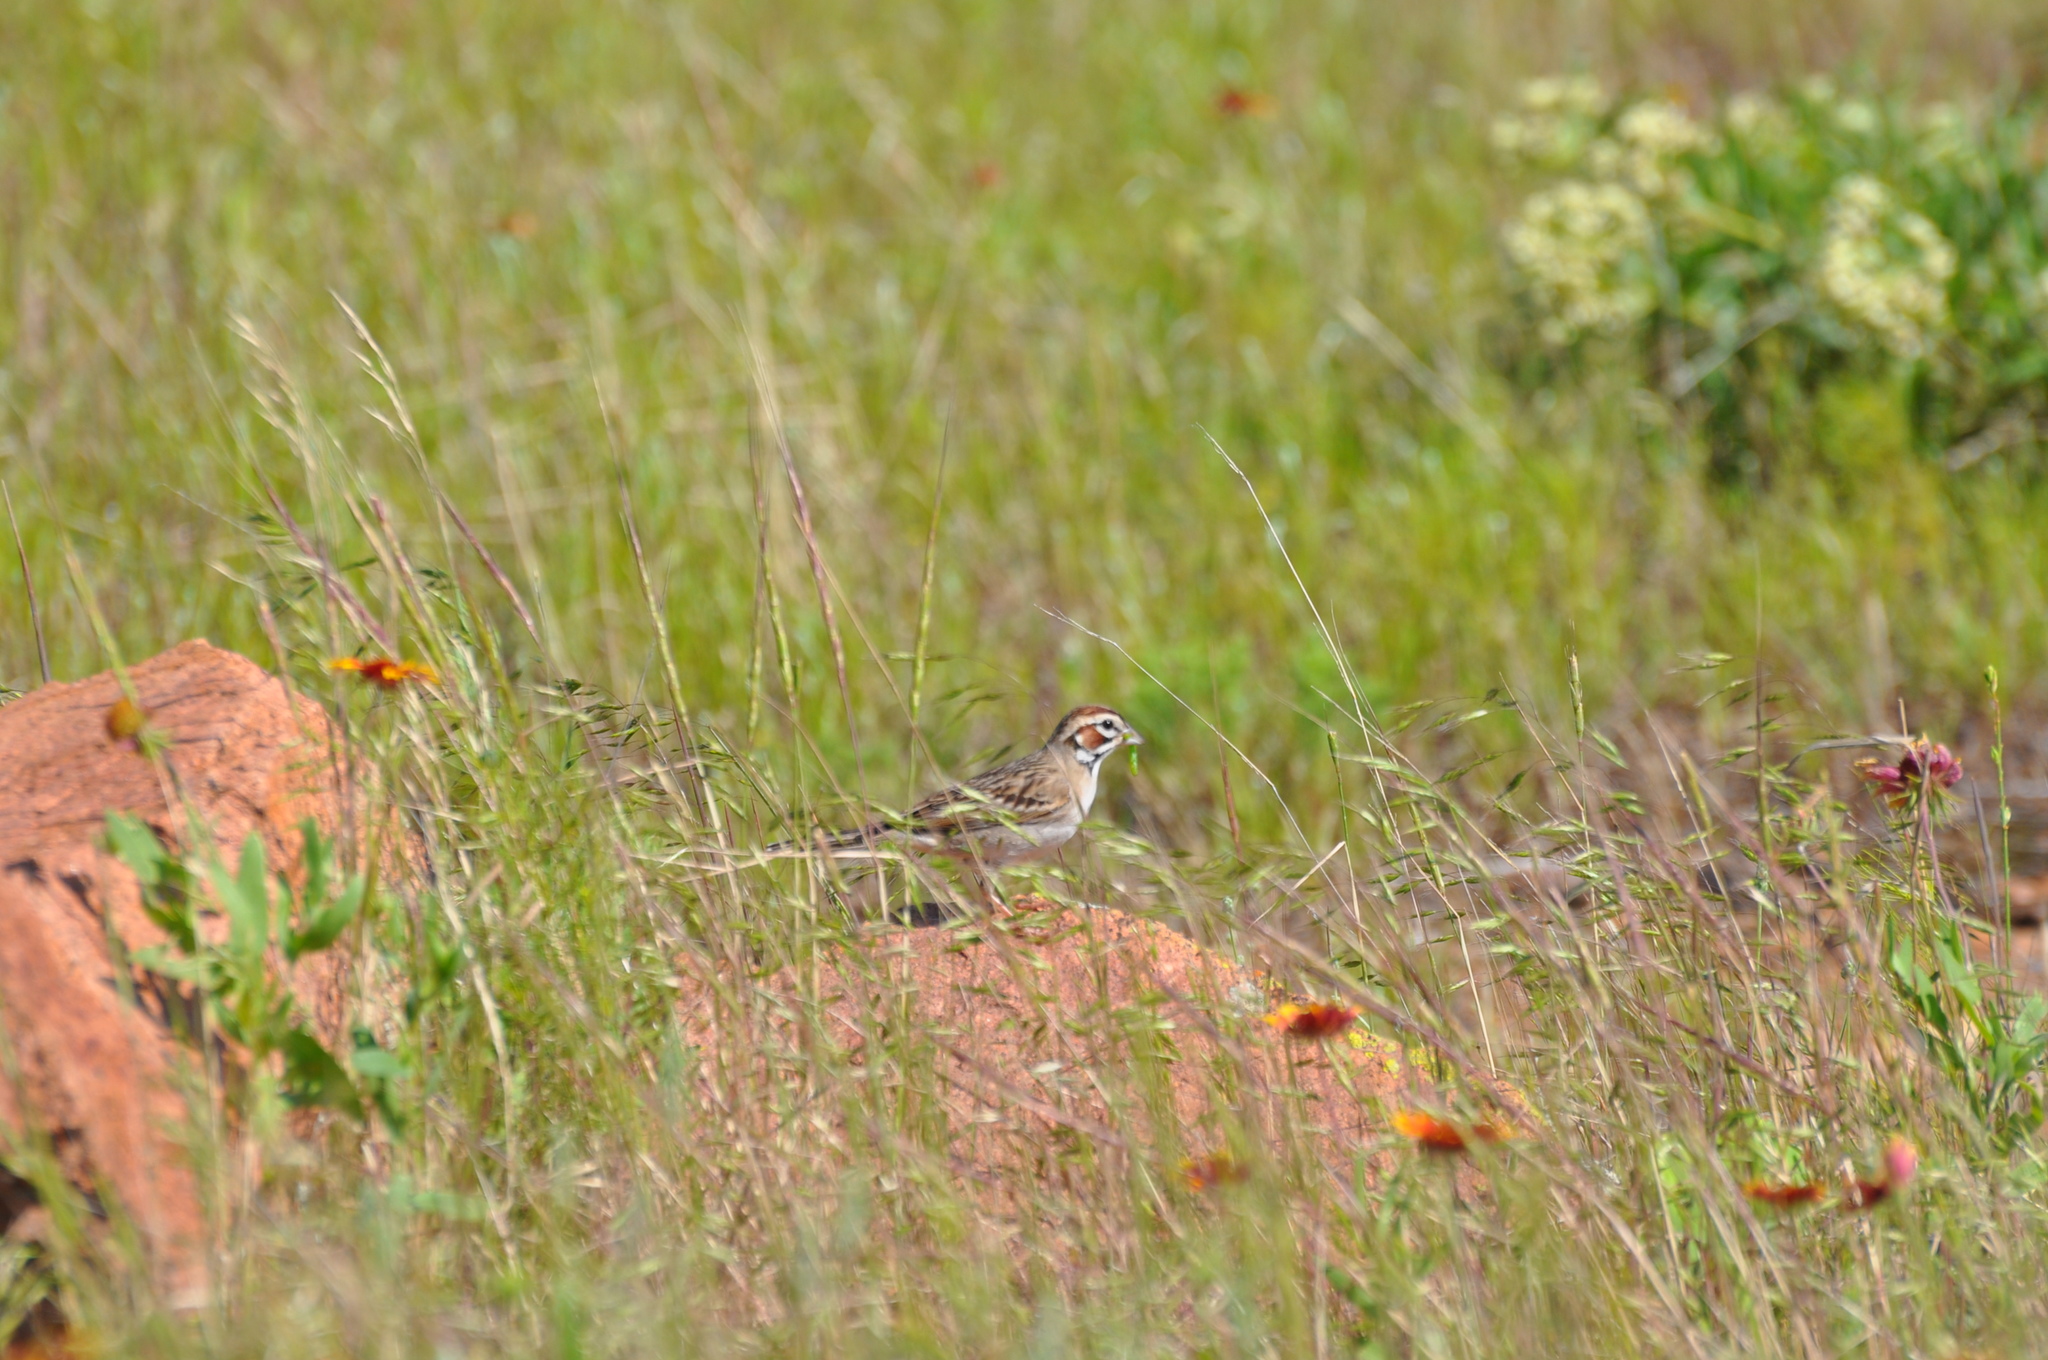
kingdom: Animalia
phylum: Chordata
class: Aves
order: Passeriformes
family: Passerellidae
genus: Chondestes
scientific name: Chondestes grammacus
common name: Lark sparrow
